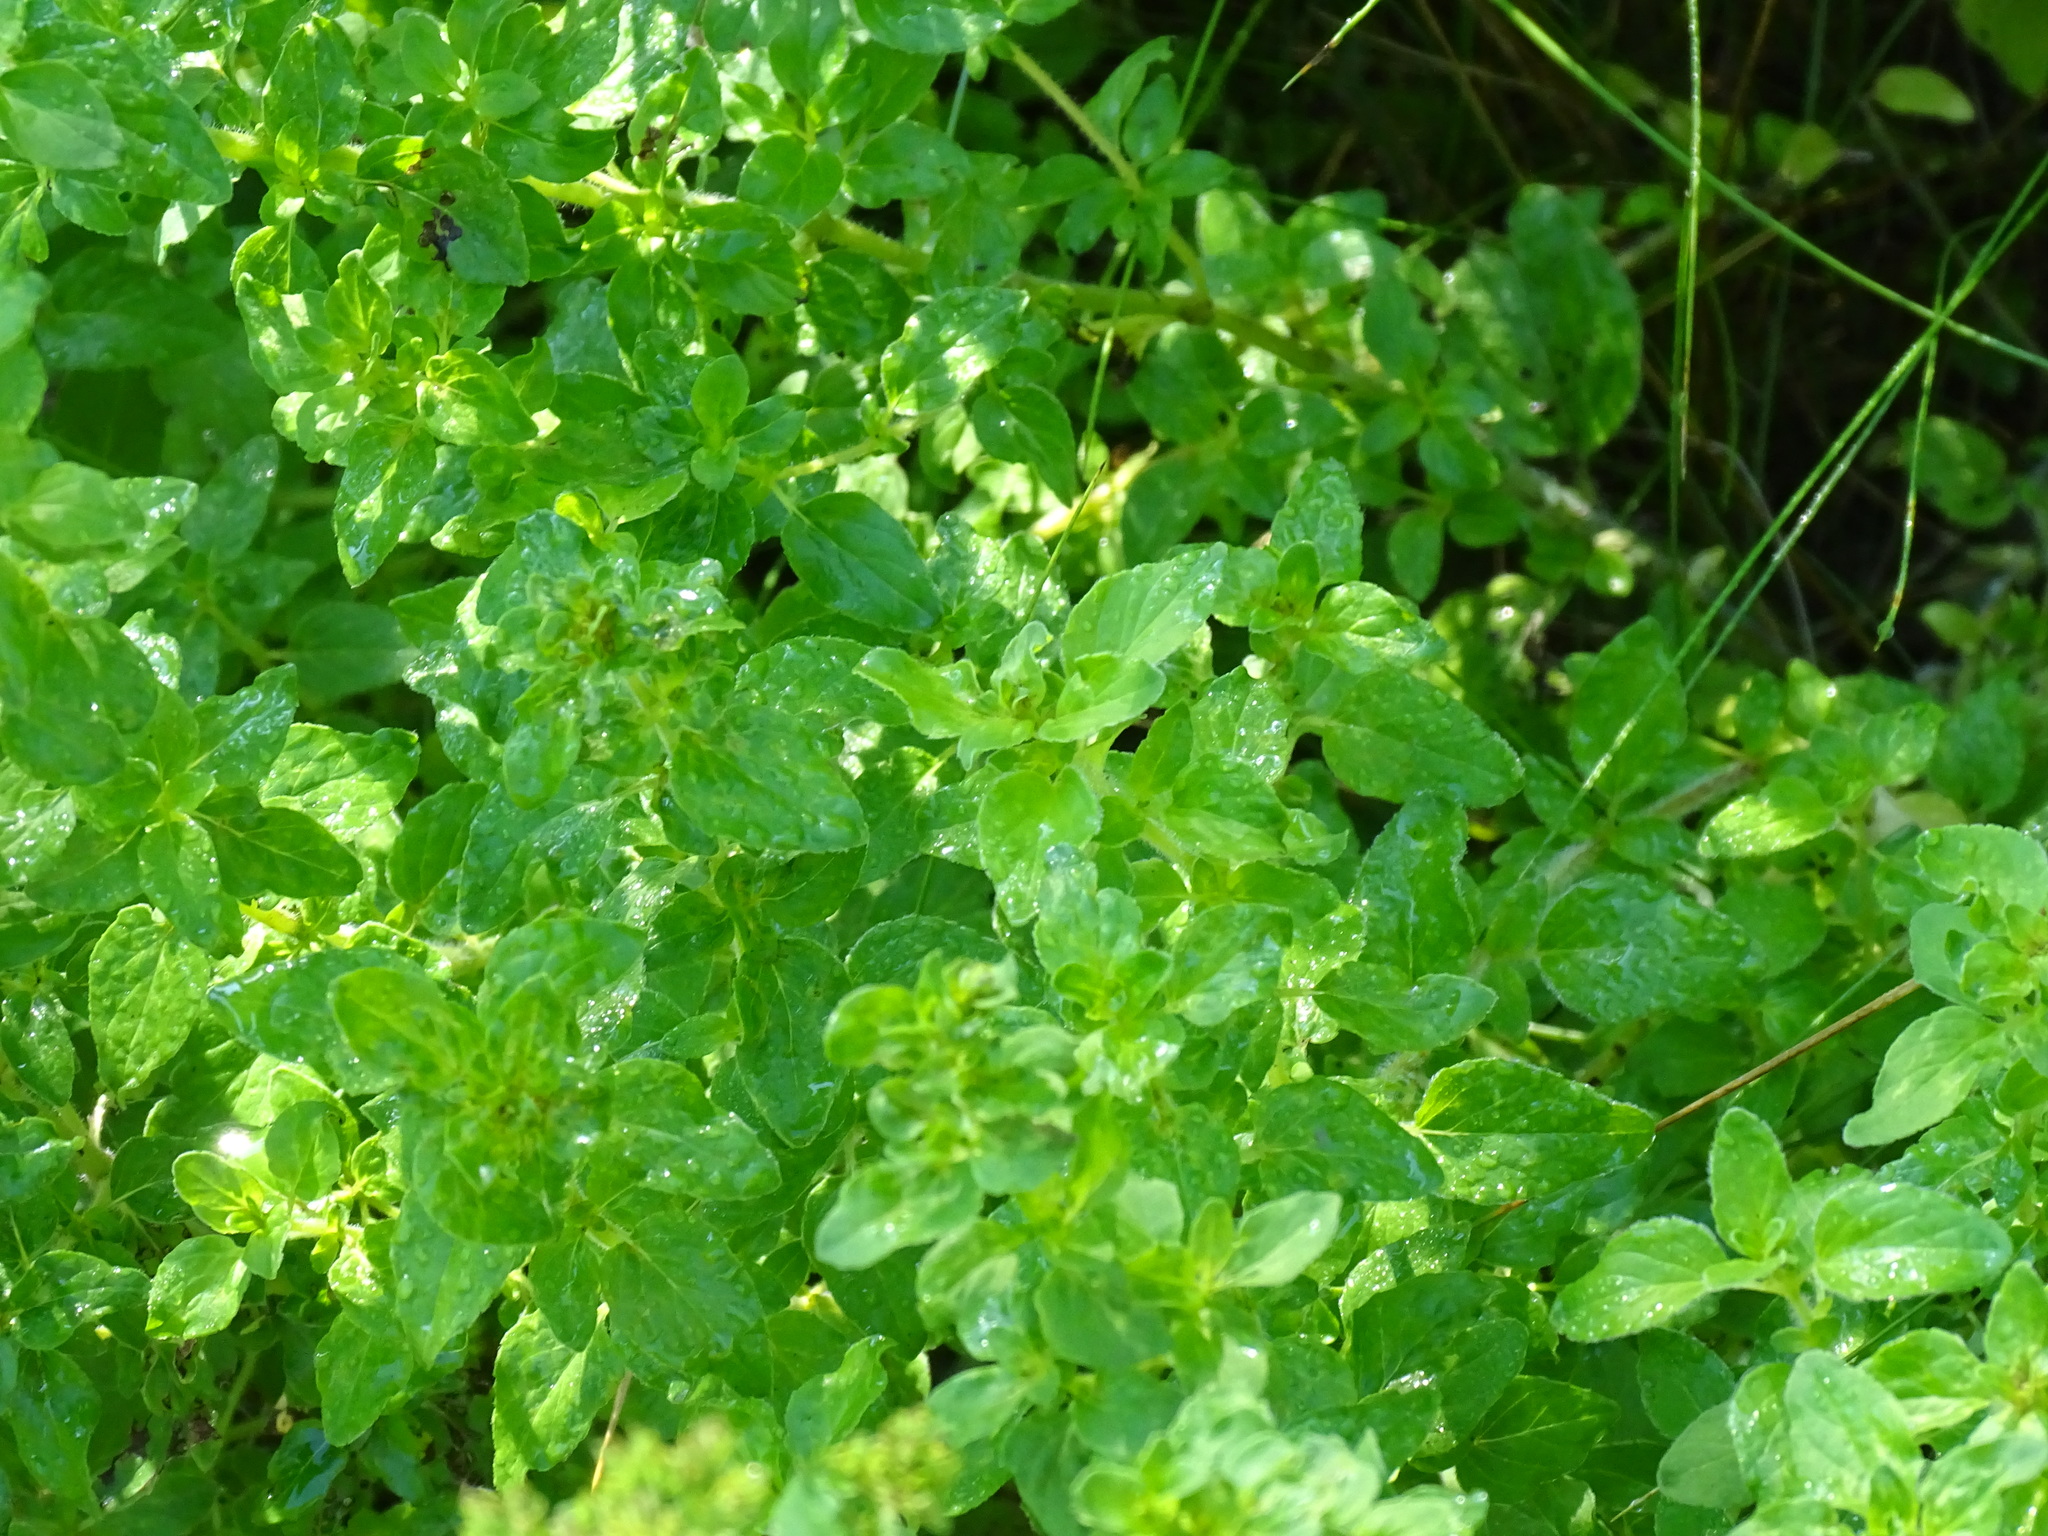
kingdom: Plantae
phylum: Tracheophyta
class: Magnoliopsida
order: Lamiales
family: Lamiaceae
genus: Origanum
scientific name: Origanum vulgare
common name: Wild marjoram
